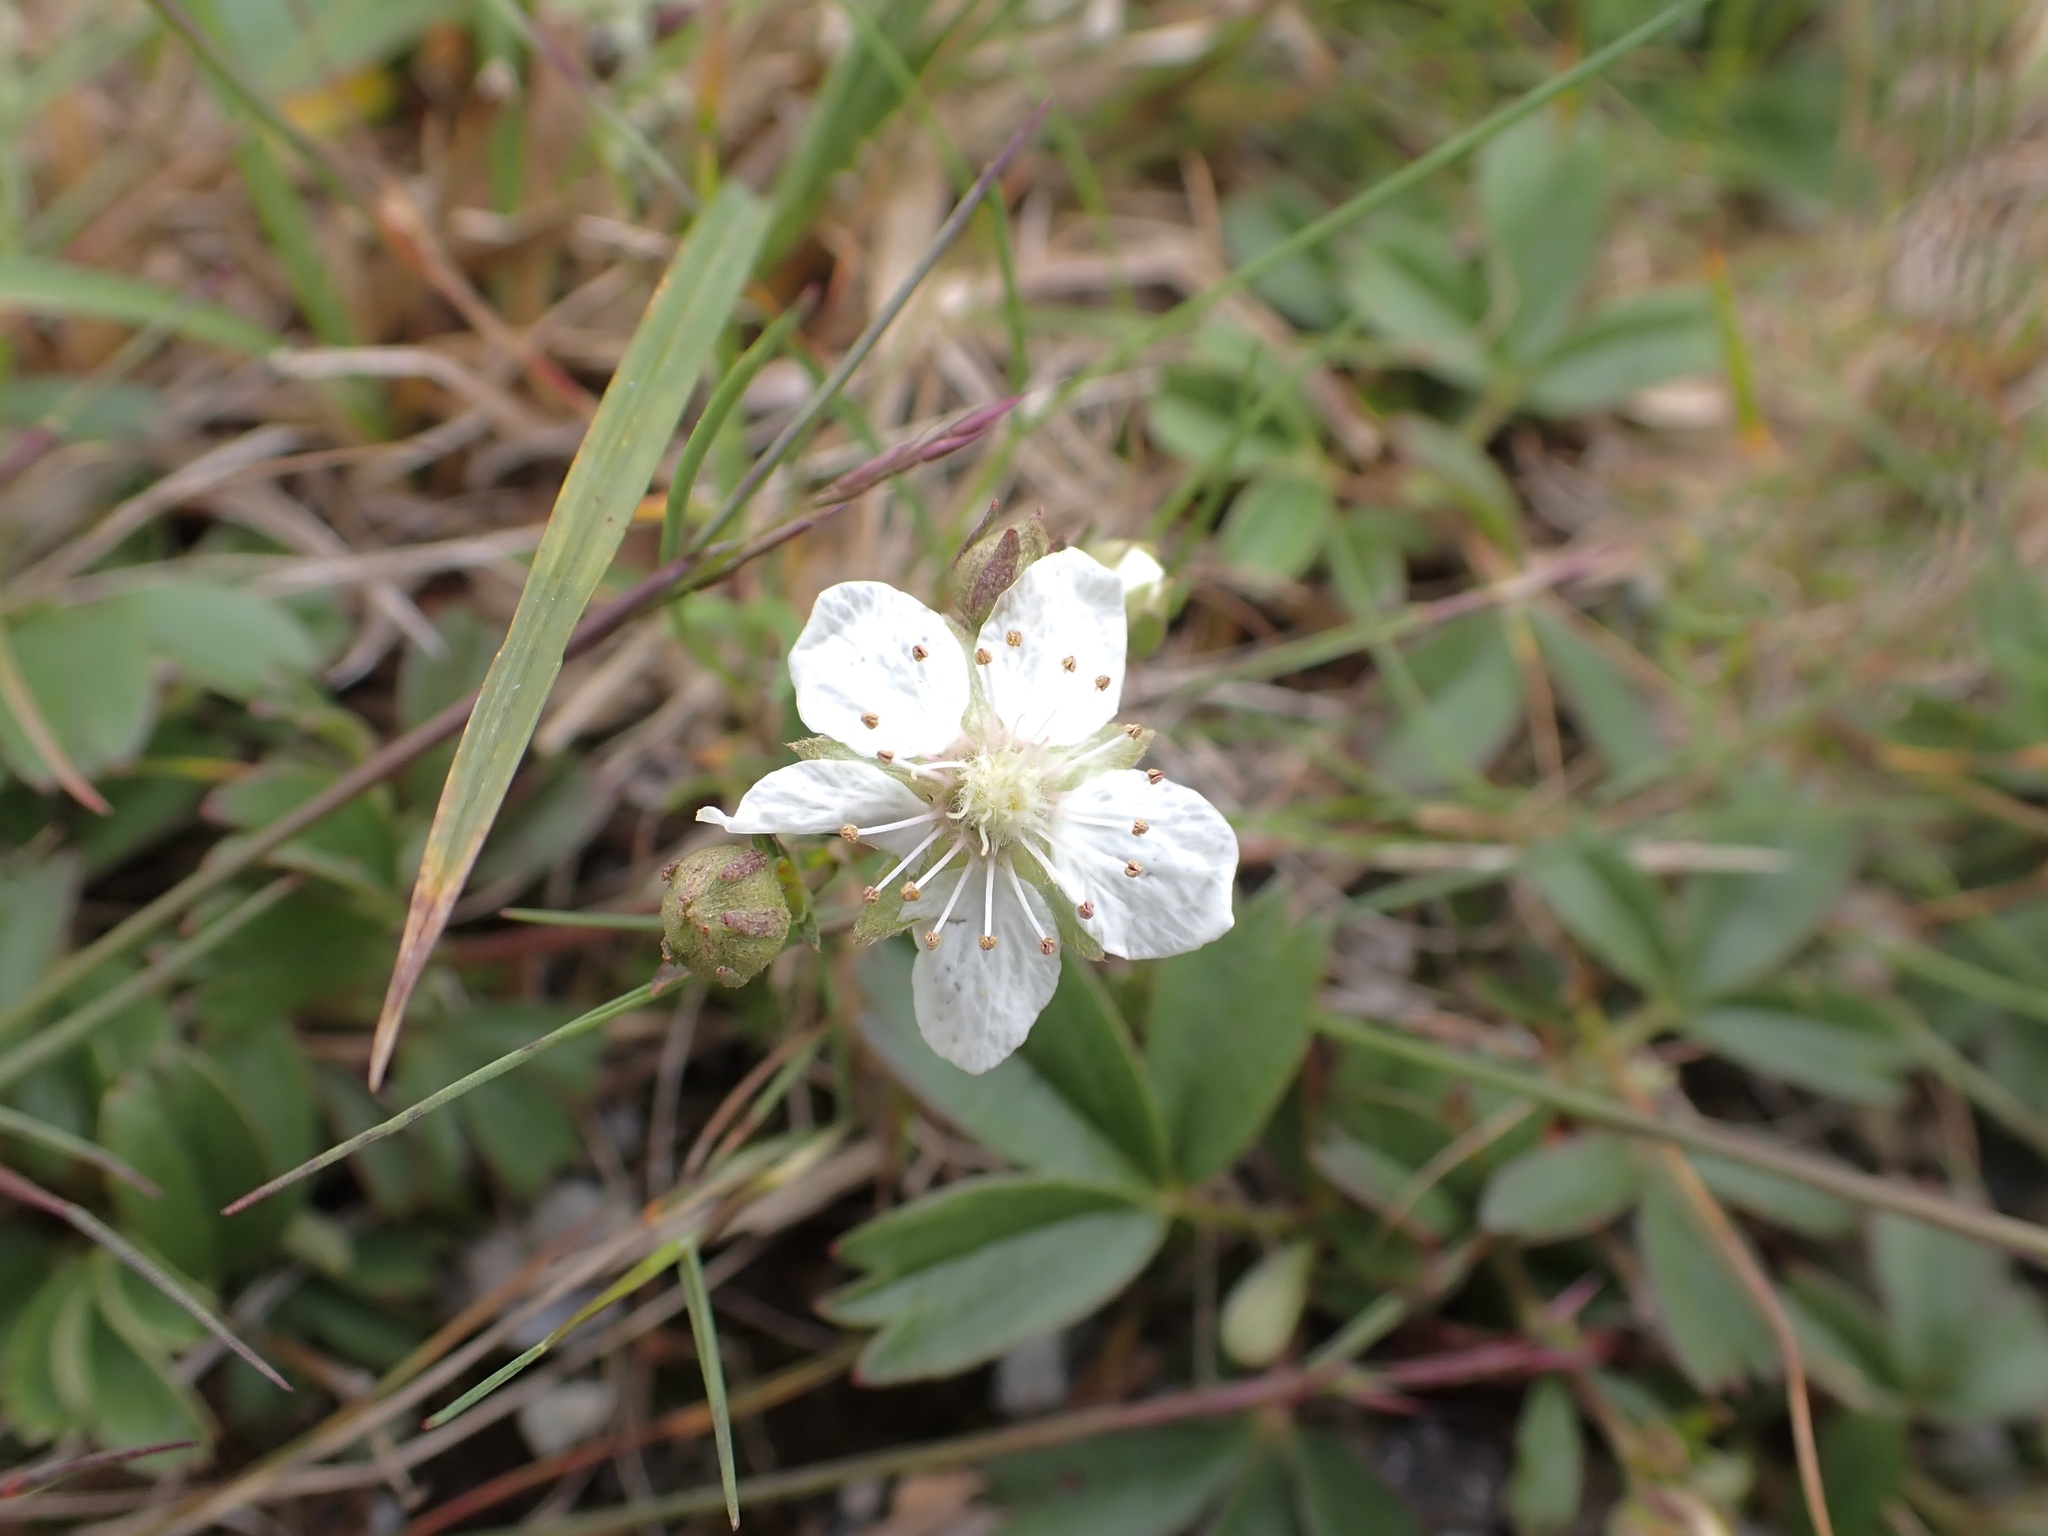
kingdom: Plantae
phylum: Tracheophyta
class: Magnoliopsida
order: Rosales
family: Rosaceae
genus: Sibbaldia
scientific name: Sibbaldia tridentata
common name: Three-toothed cinquefoil
